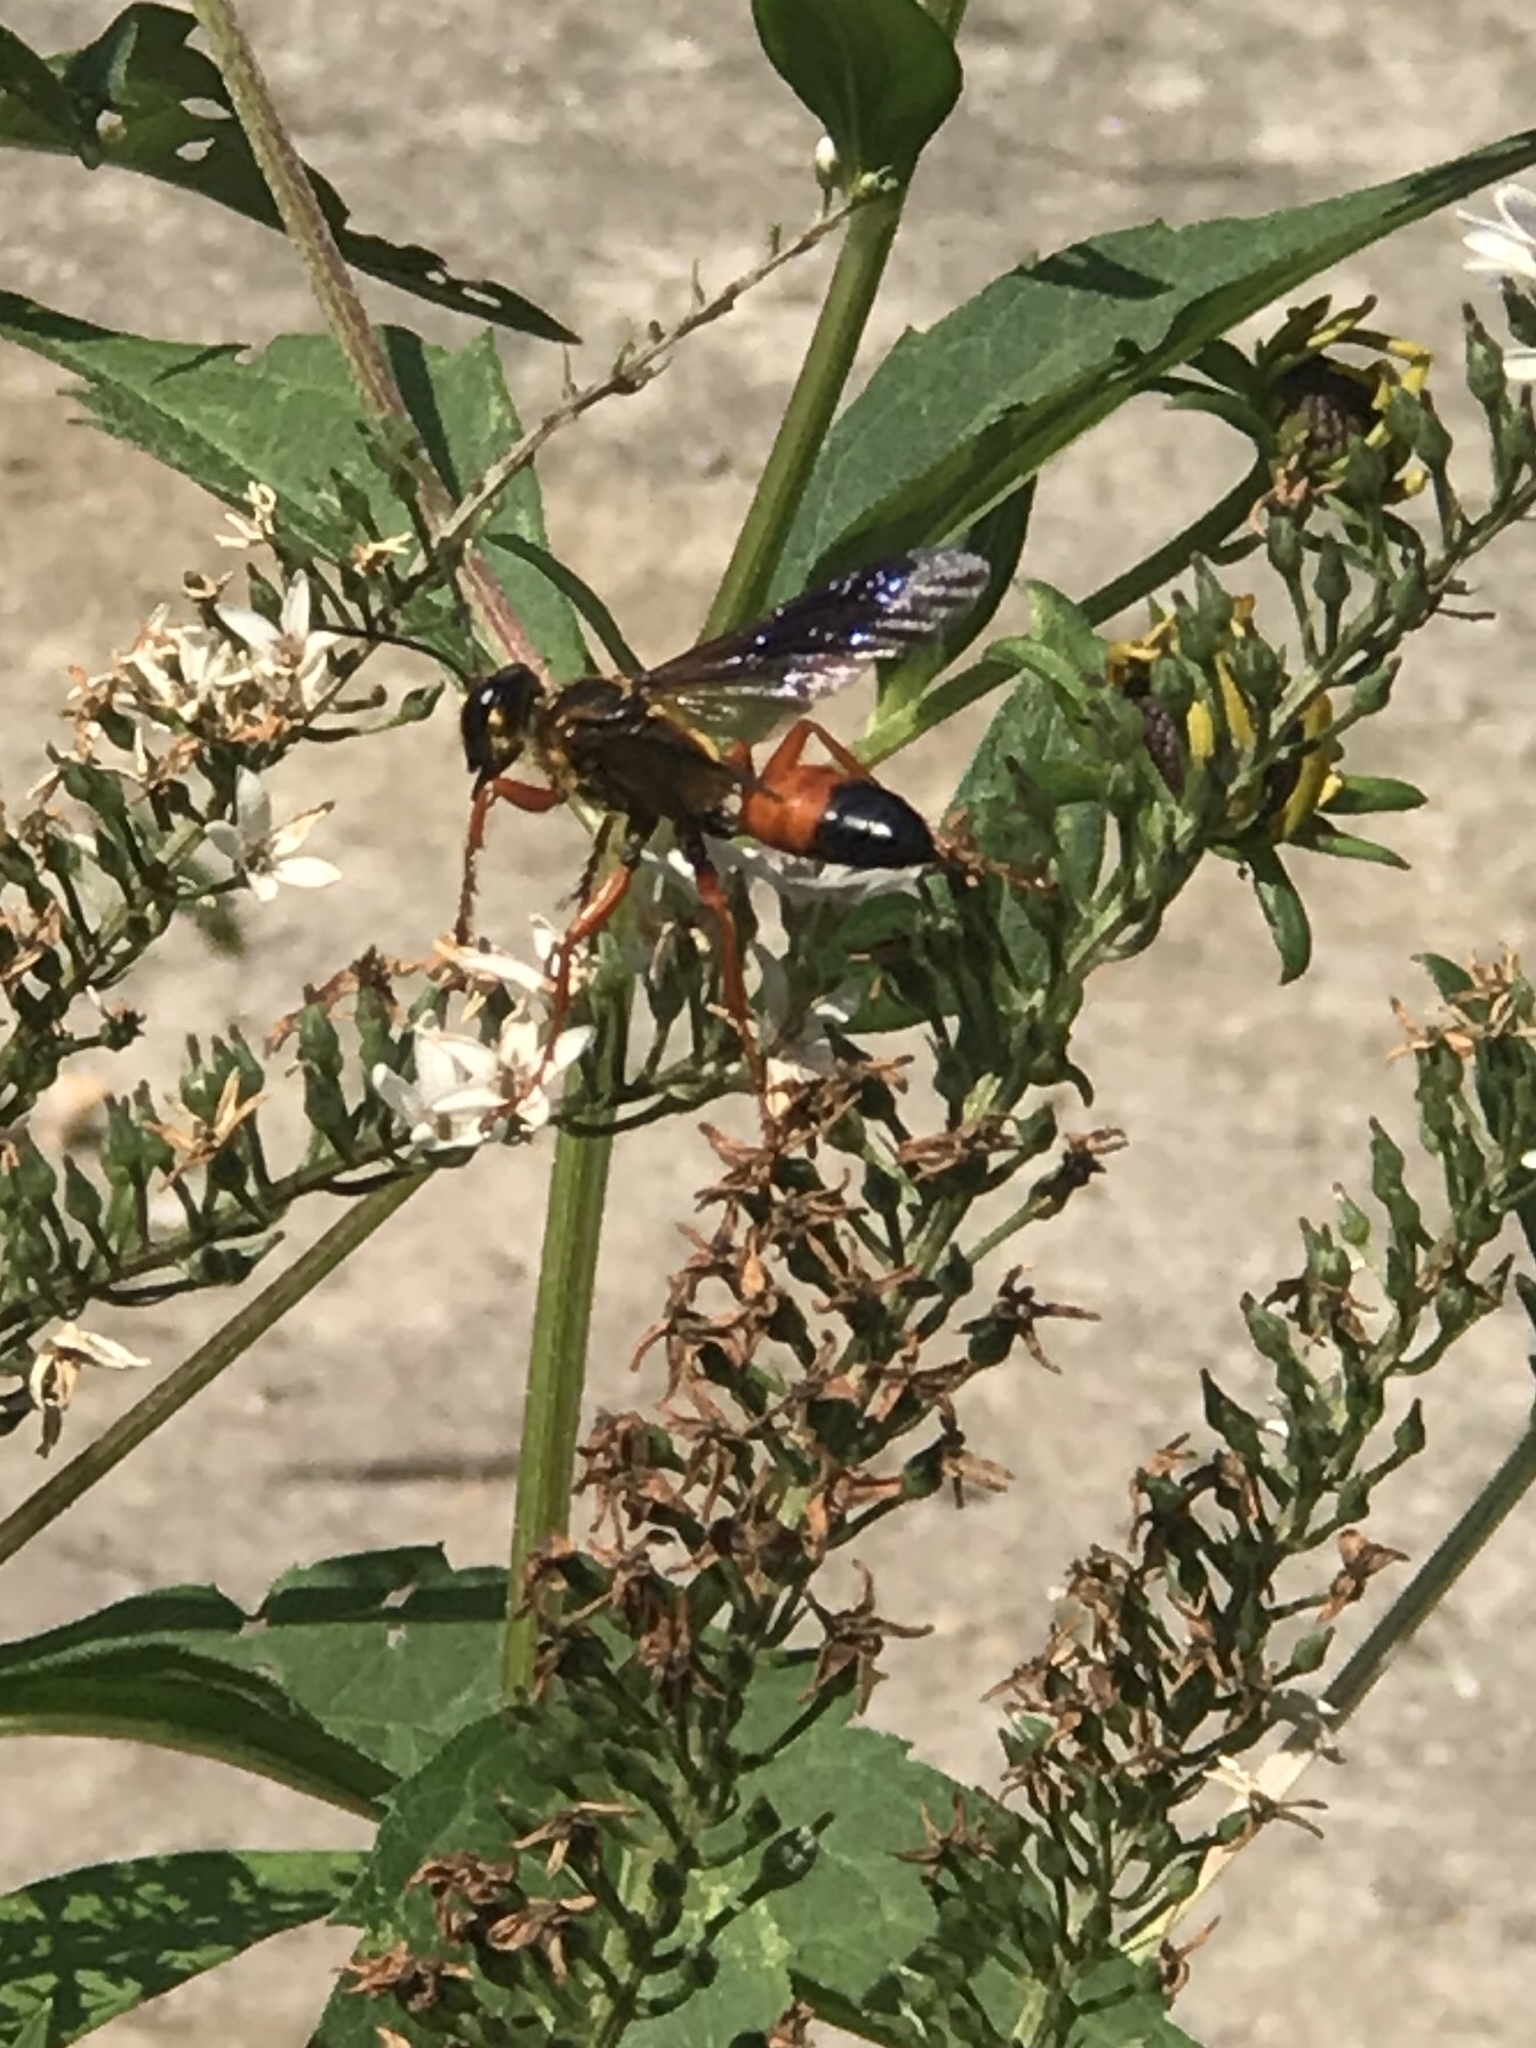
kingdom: Animalia
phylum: Arthropoda
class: Insecta
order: Hymenoptera
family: Sphecidae
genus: Sphex
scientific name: Sphex ichneumoneus
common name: Great golden digger wasp
